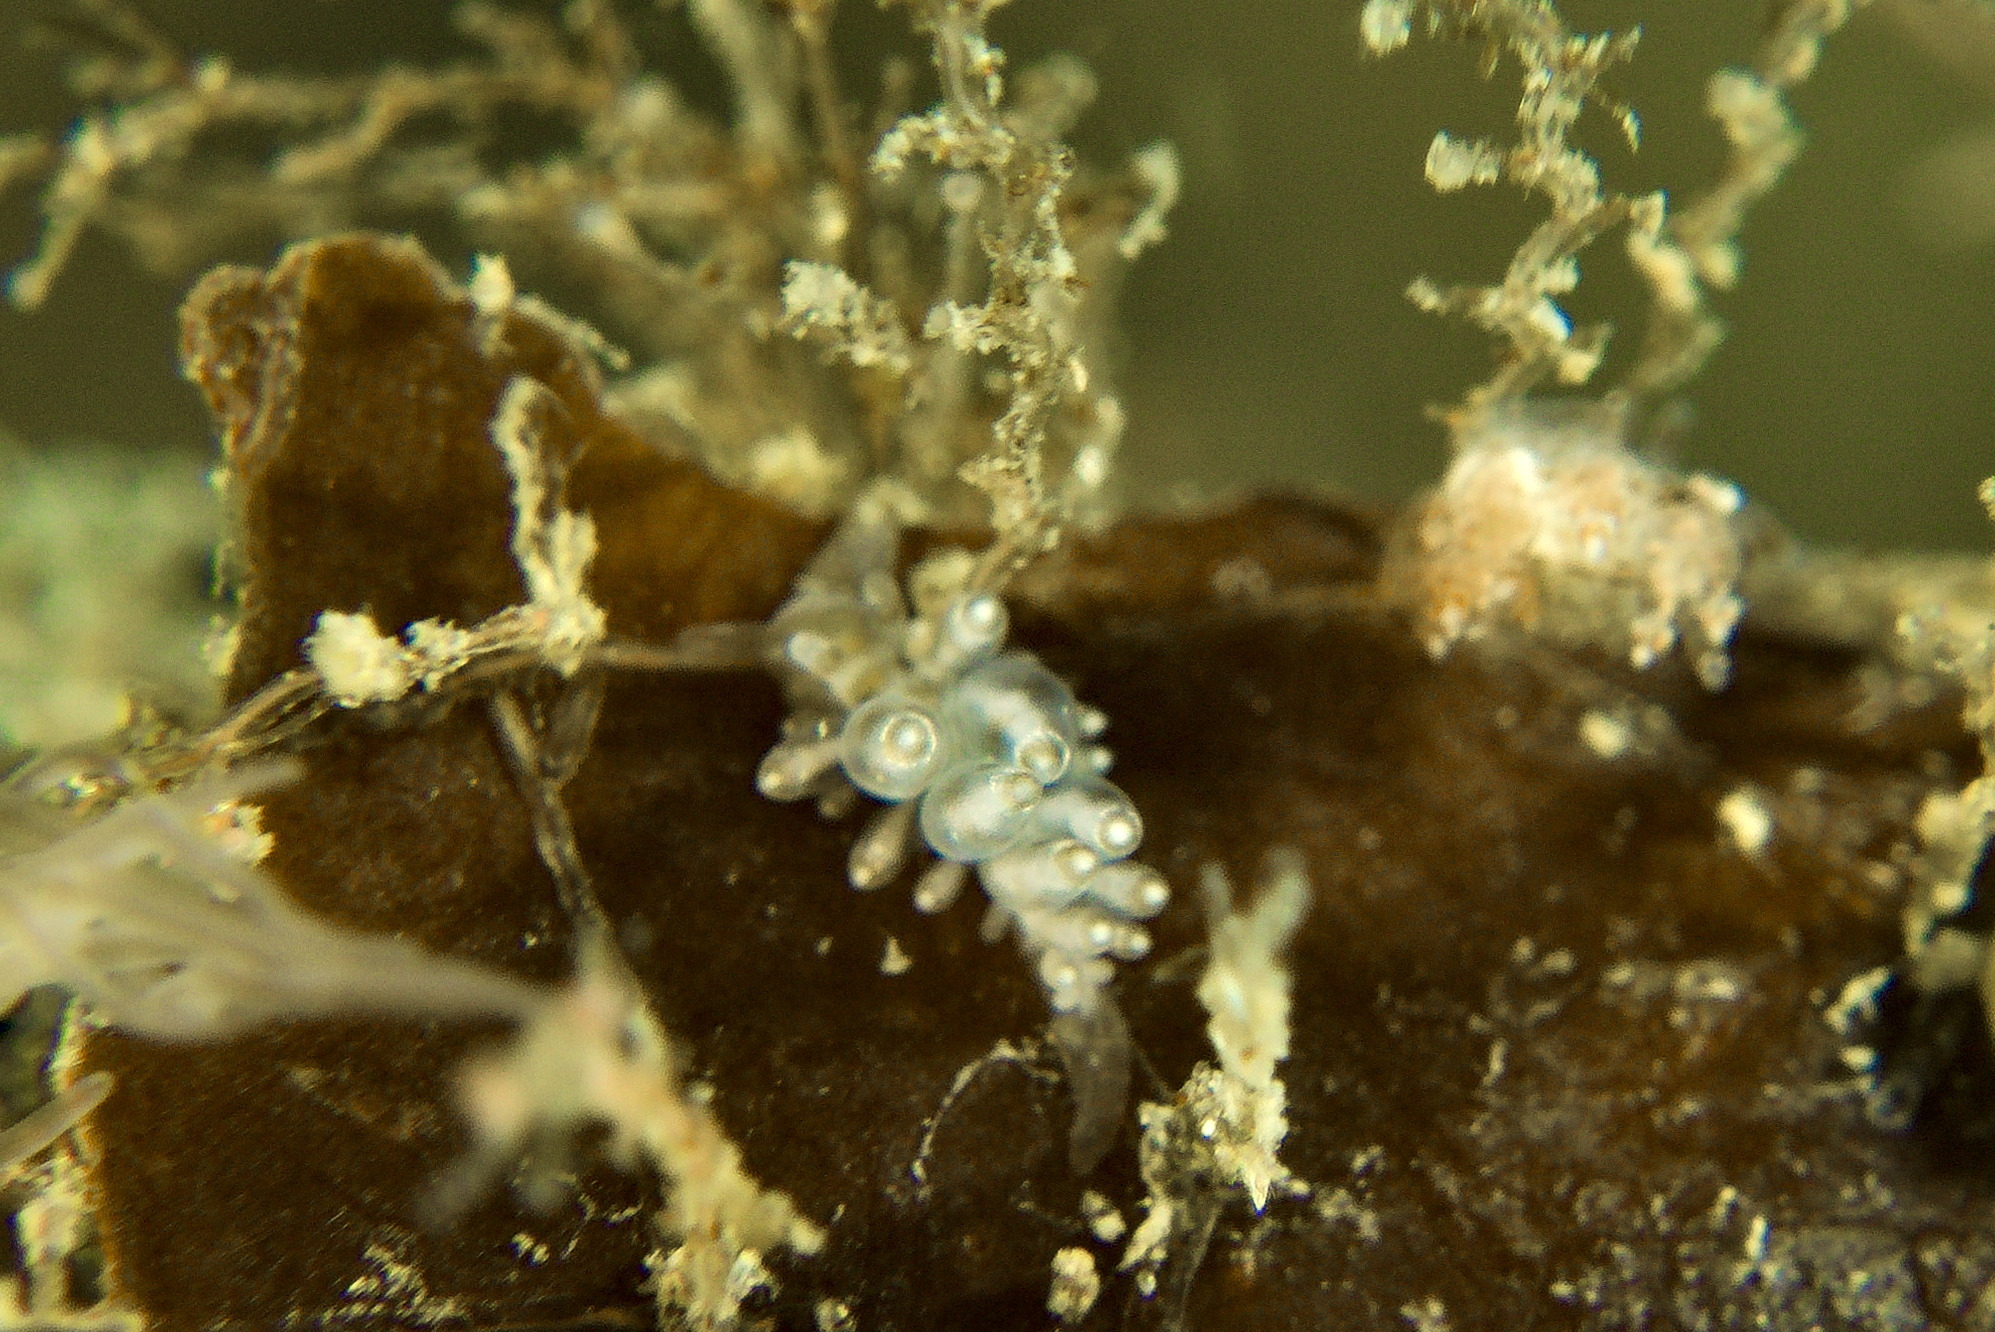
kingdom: Animalia
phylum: Mollusca
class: Gastropoda
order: Nudibranchia
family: Eubranchidae
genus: Amphorina
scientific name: Amphorina viriola
